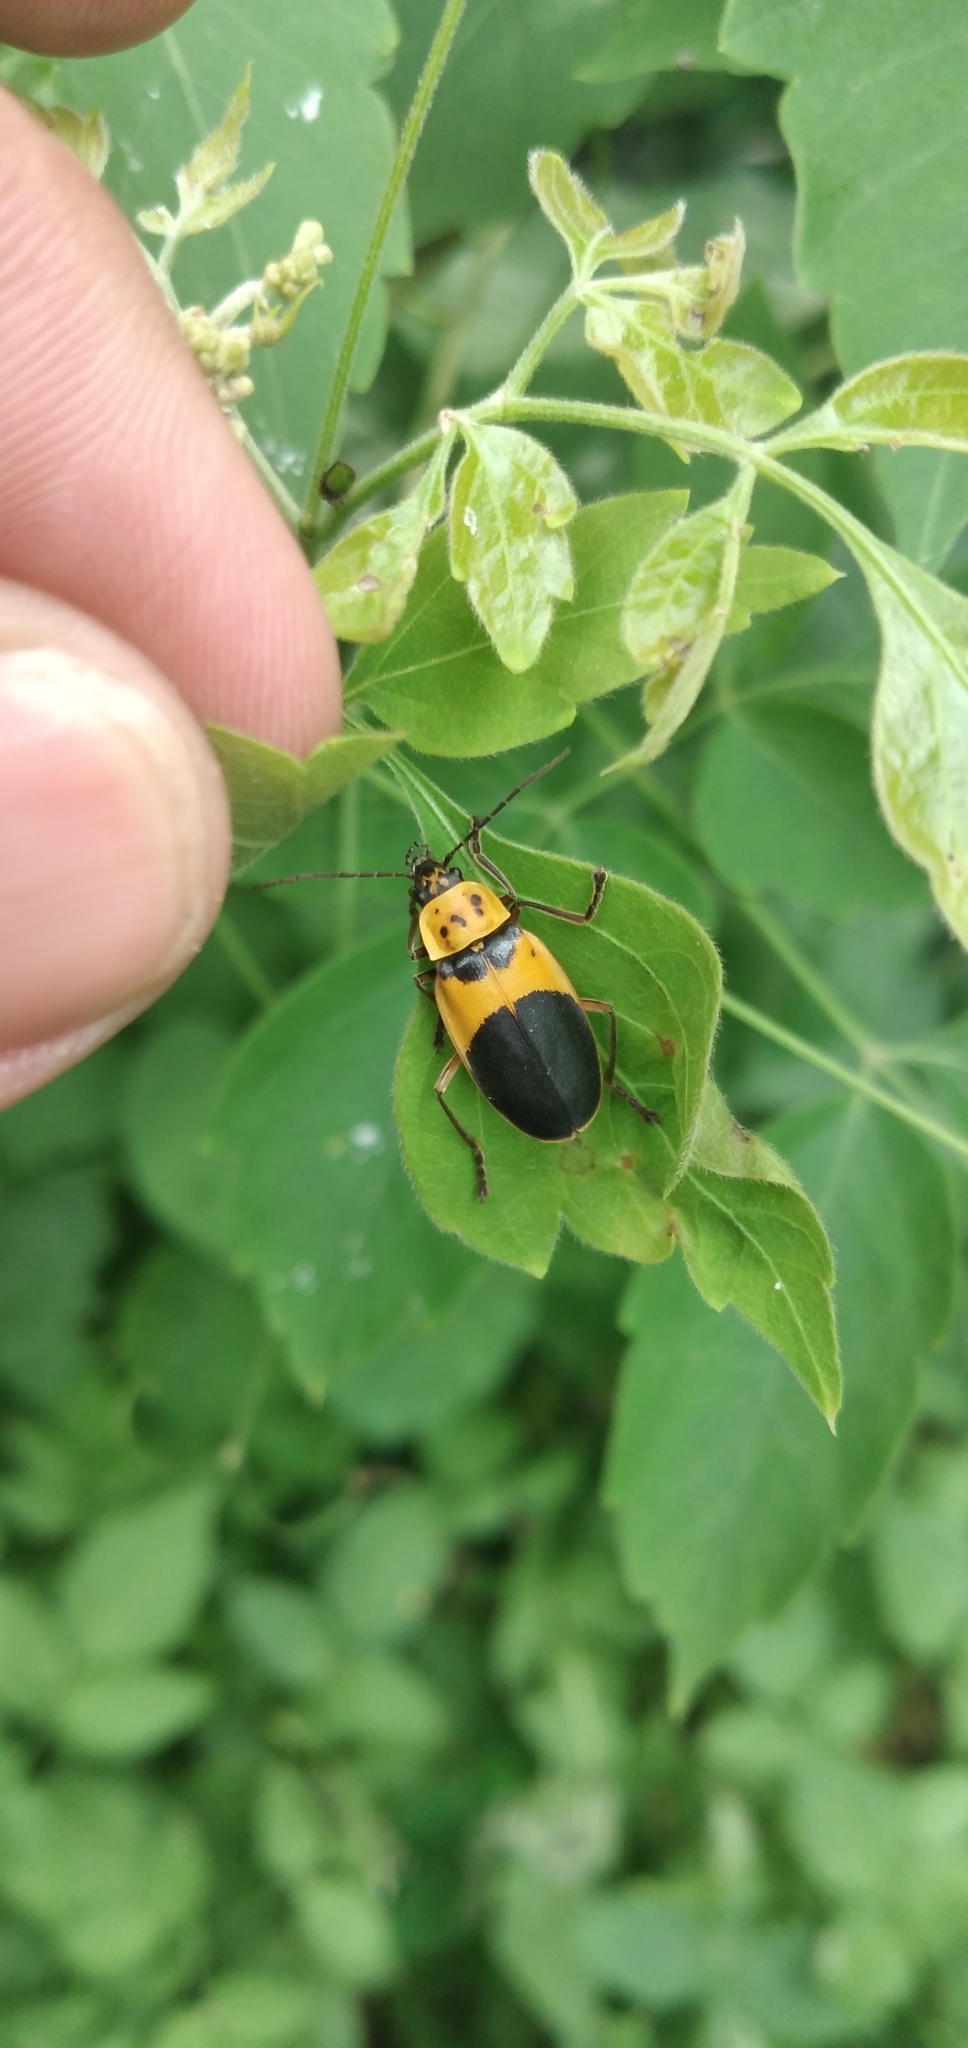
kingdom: Animalia
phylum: Arthropoda
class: Insecta
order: Coleoptera
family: Cantharidae
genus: Chauliognathus
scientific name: Chauliognathus
